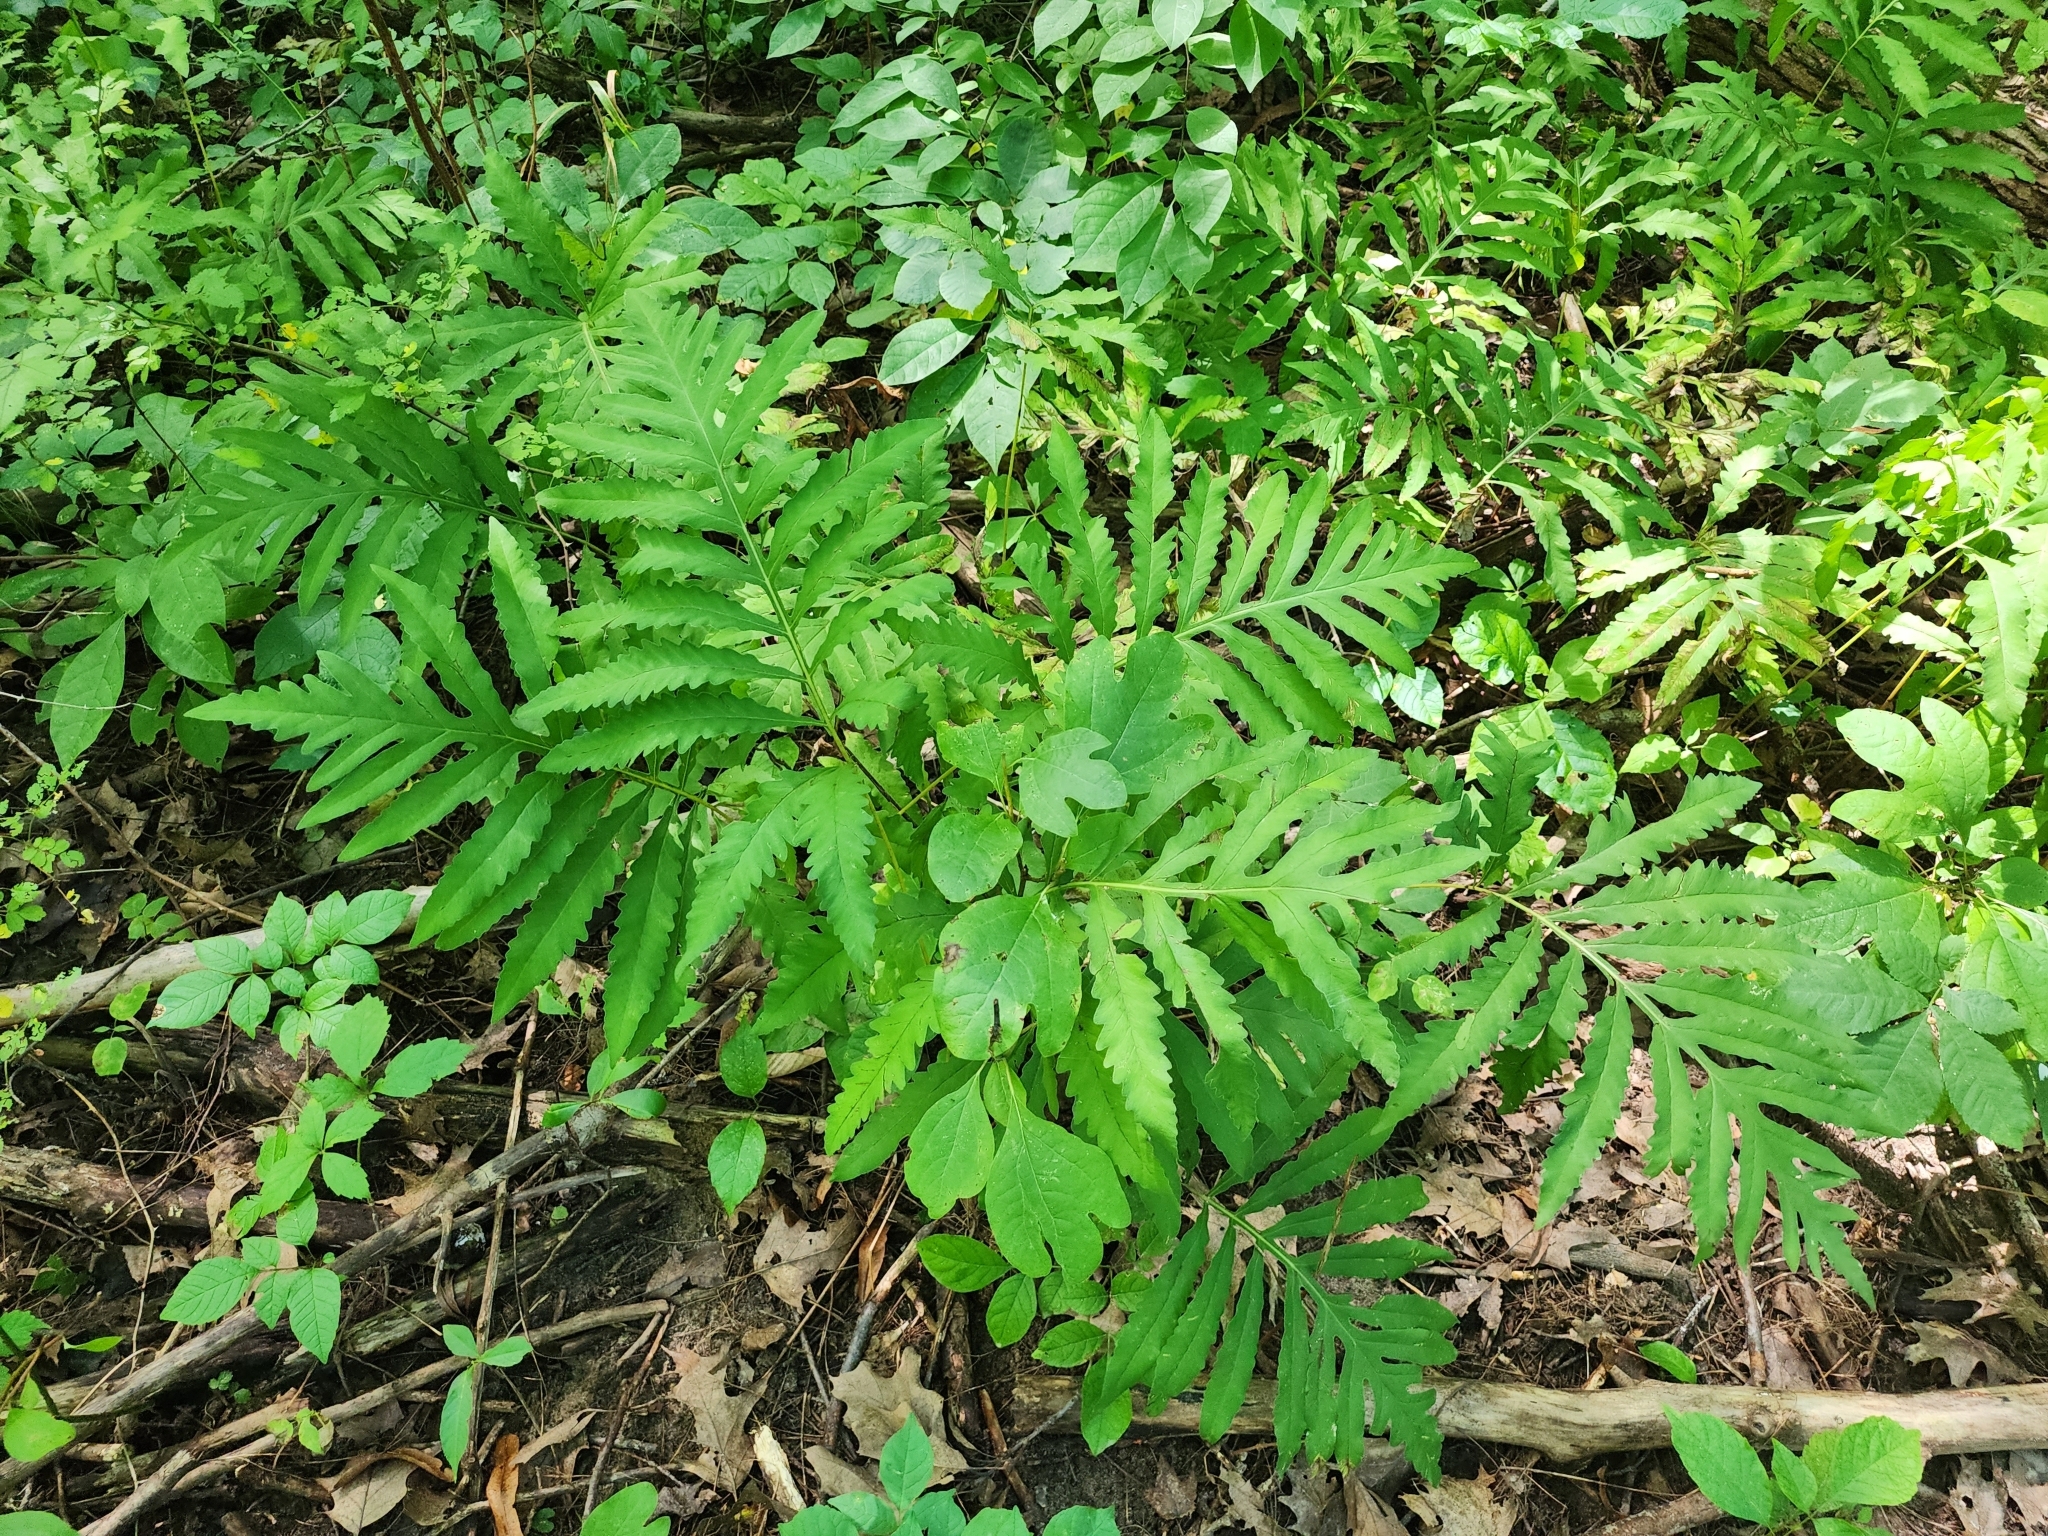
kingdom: Plantae
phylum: Tracheophyta
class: Polypodiopsida
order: Polypodiales
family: Onocleaceae
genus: Onoclea
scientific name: Onoclea sensibilis
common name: Sensitive fern
